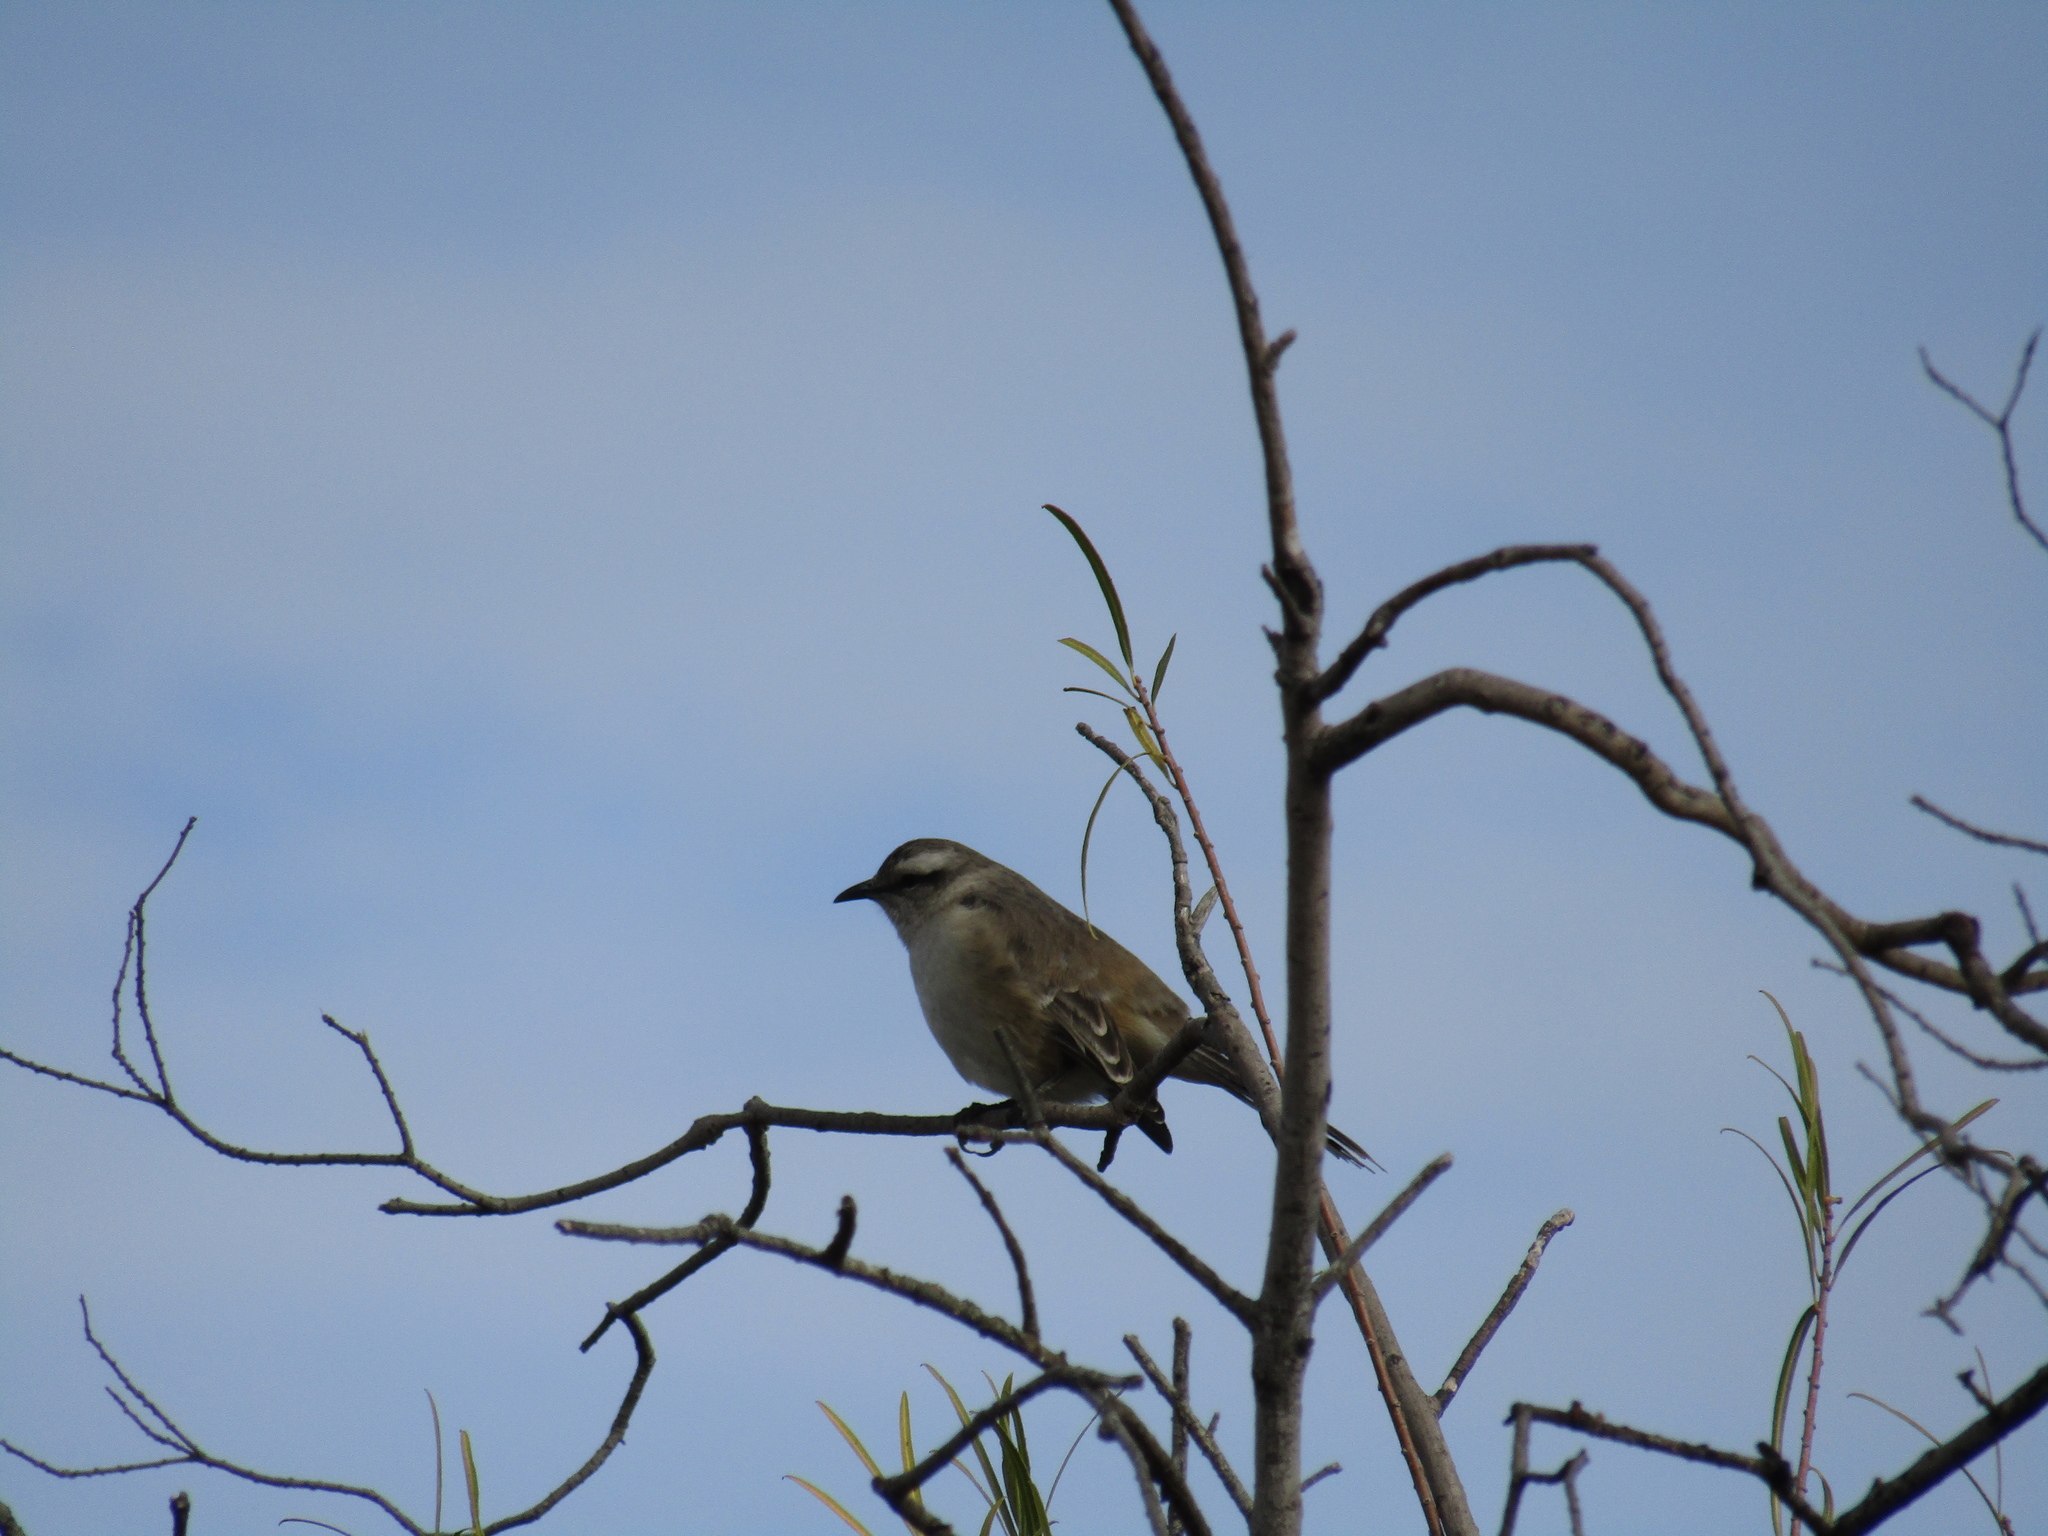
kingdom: Animalia
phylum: Chordata
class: Aves
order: Passeriformes
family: Mimidae
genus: Mimus
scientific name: Mimus saturninus
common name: Chalk-browed mockingbird
